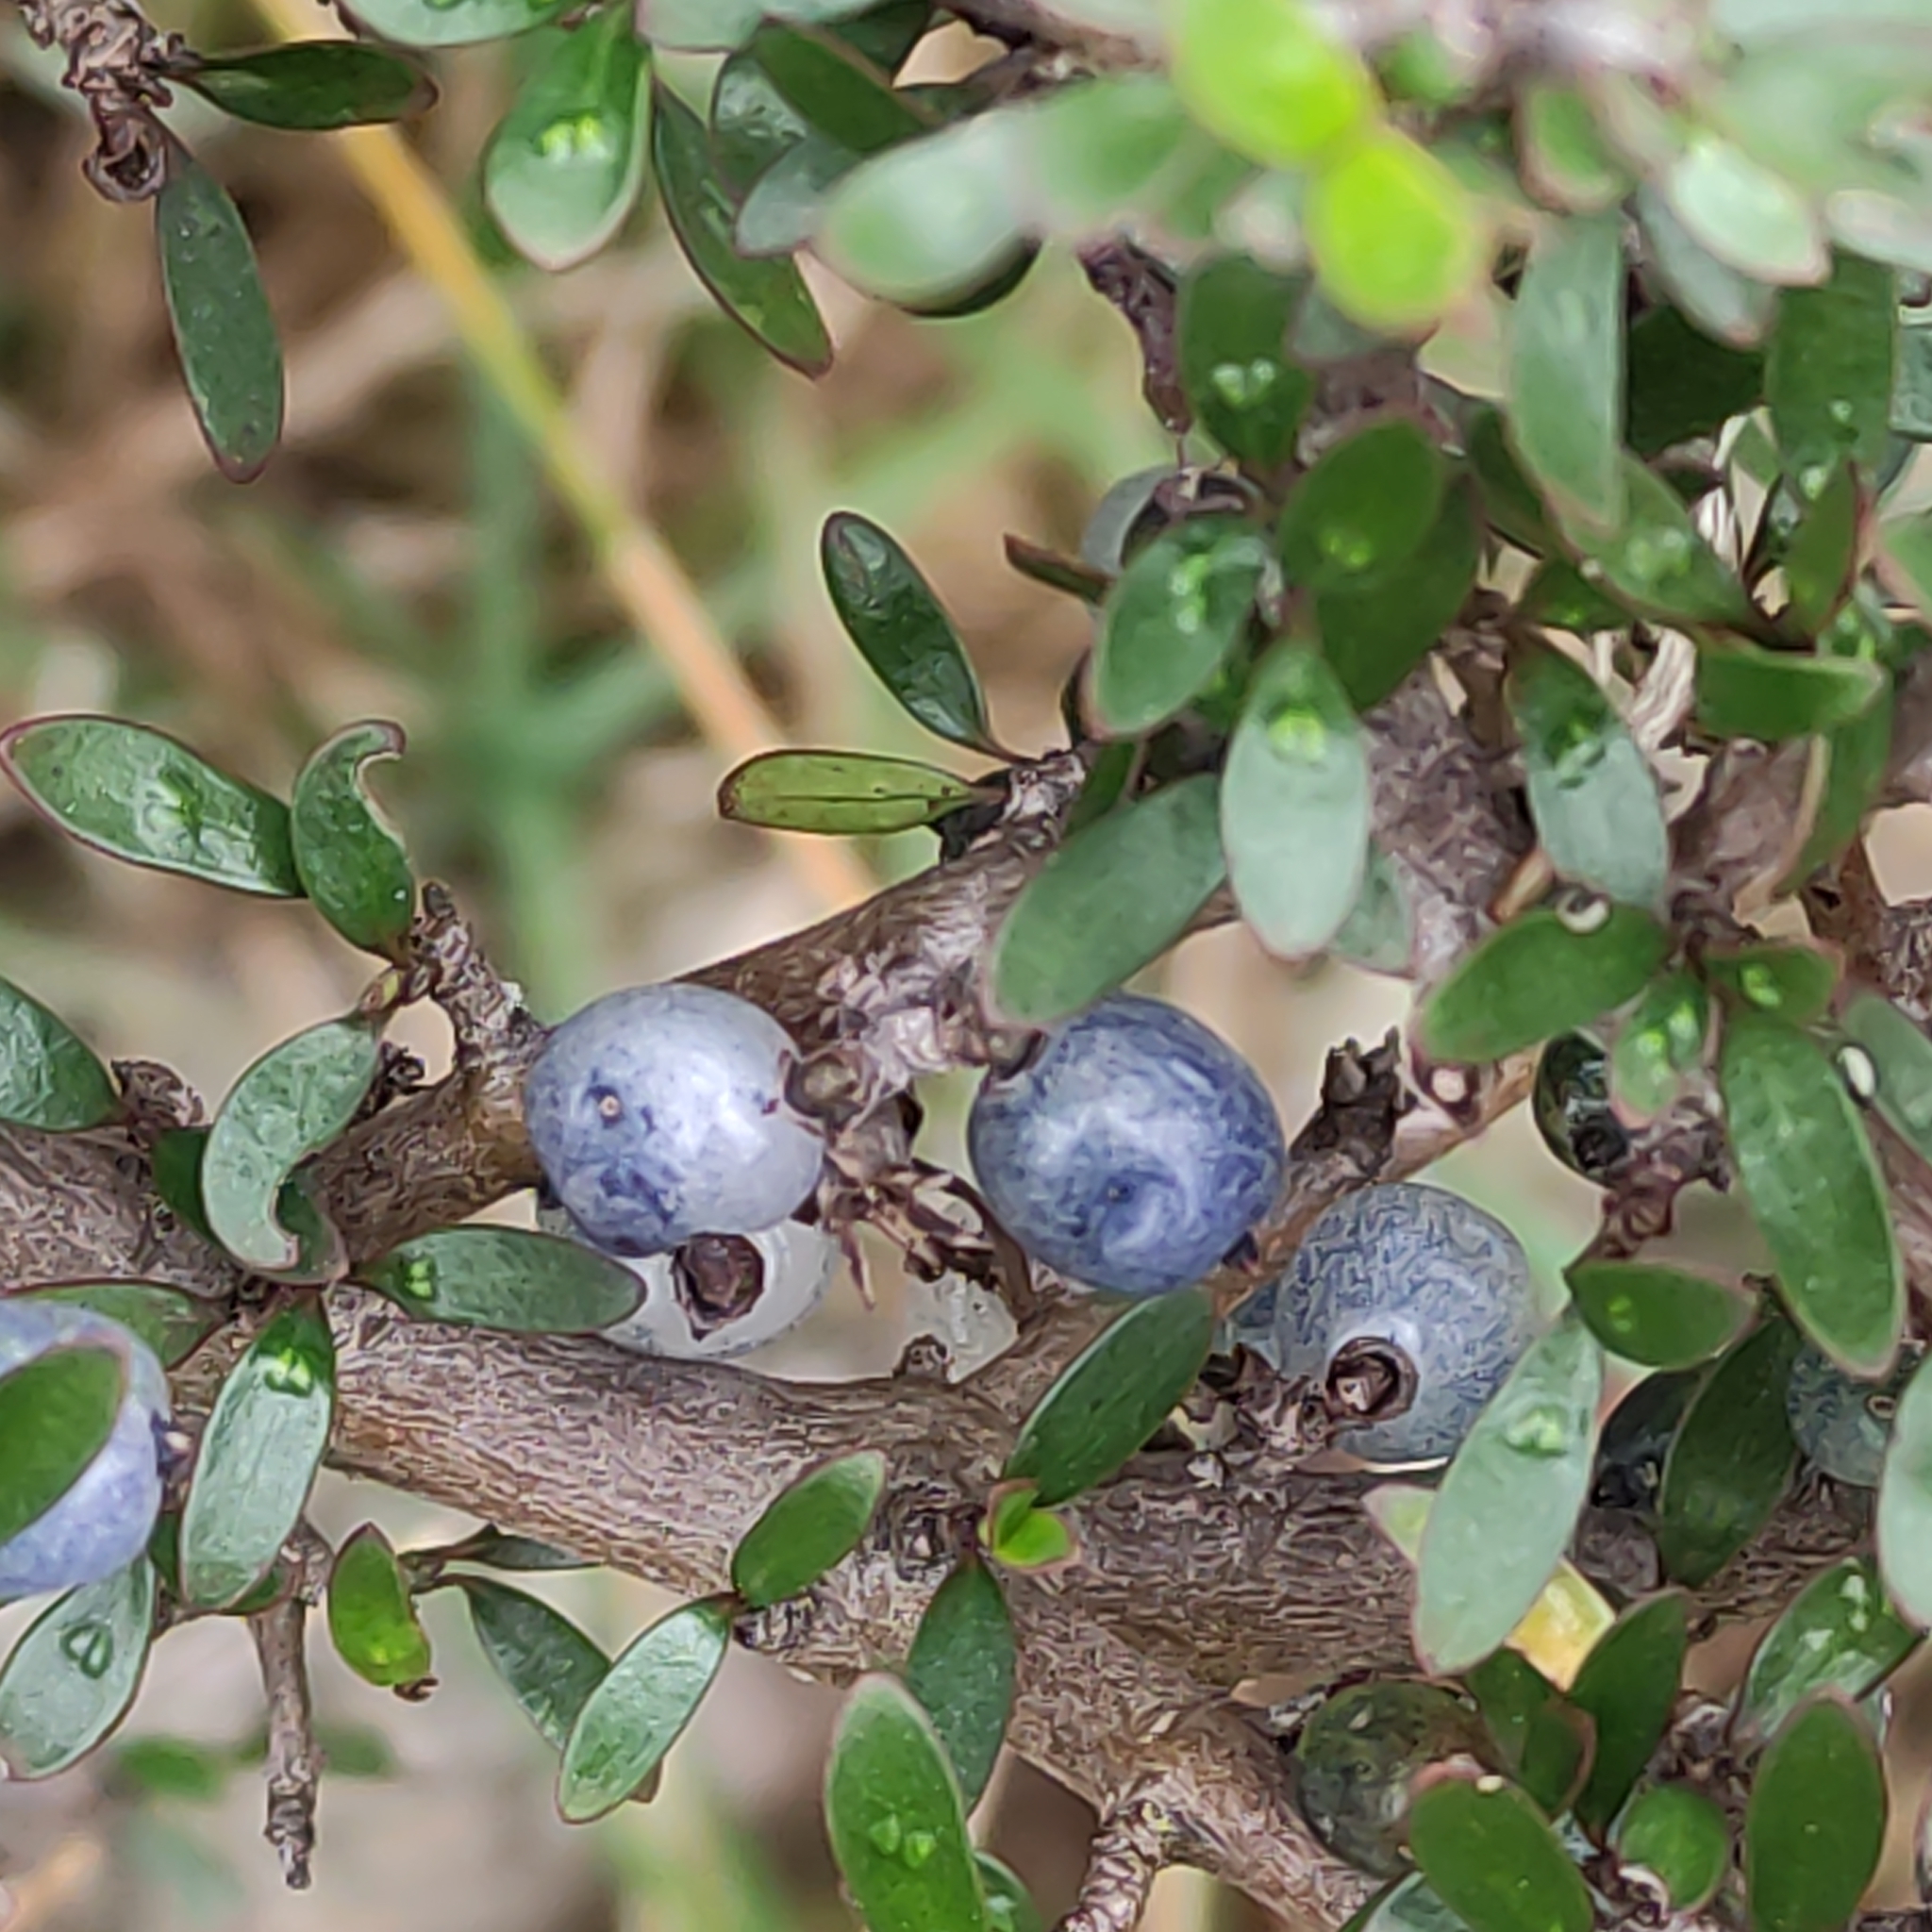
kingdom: Plantae
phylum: Tracheophyta
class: Magnoliopsida
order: Gentianales
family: Rubiaceae
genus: Coprosma
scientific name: Coprosma propinqua
